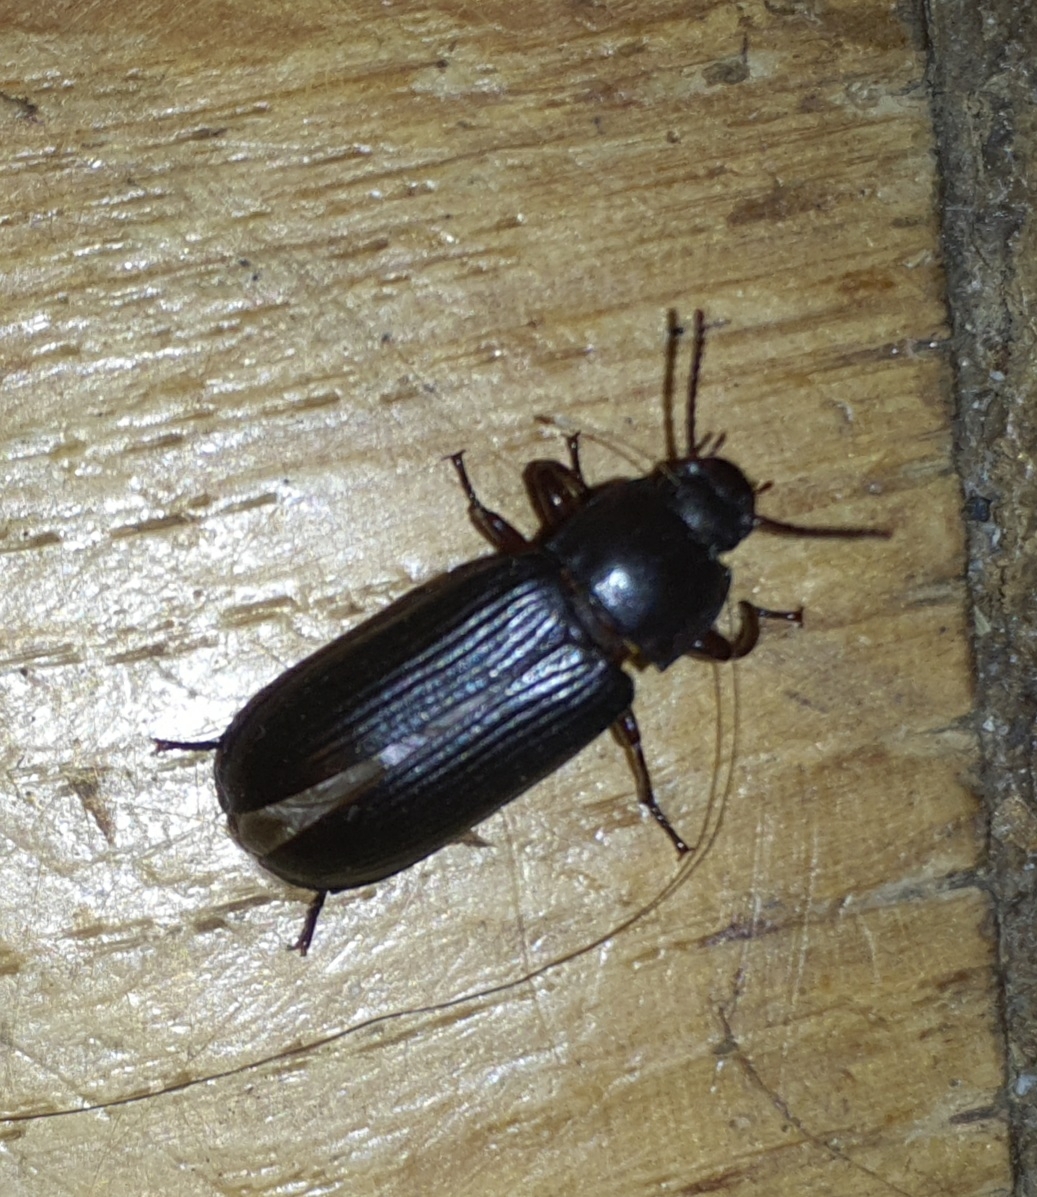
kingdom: Animalia
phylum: Arthropoda
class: Insecta
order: Coleoptera
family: Tenebrionidae
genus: Tenebrio
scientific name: Tenebrio molitor
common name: Hardback beetle
